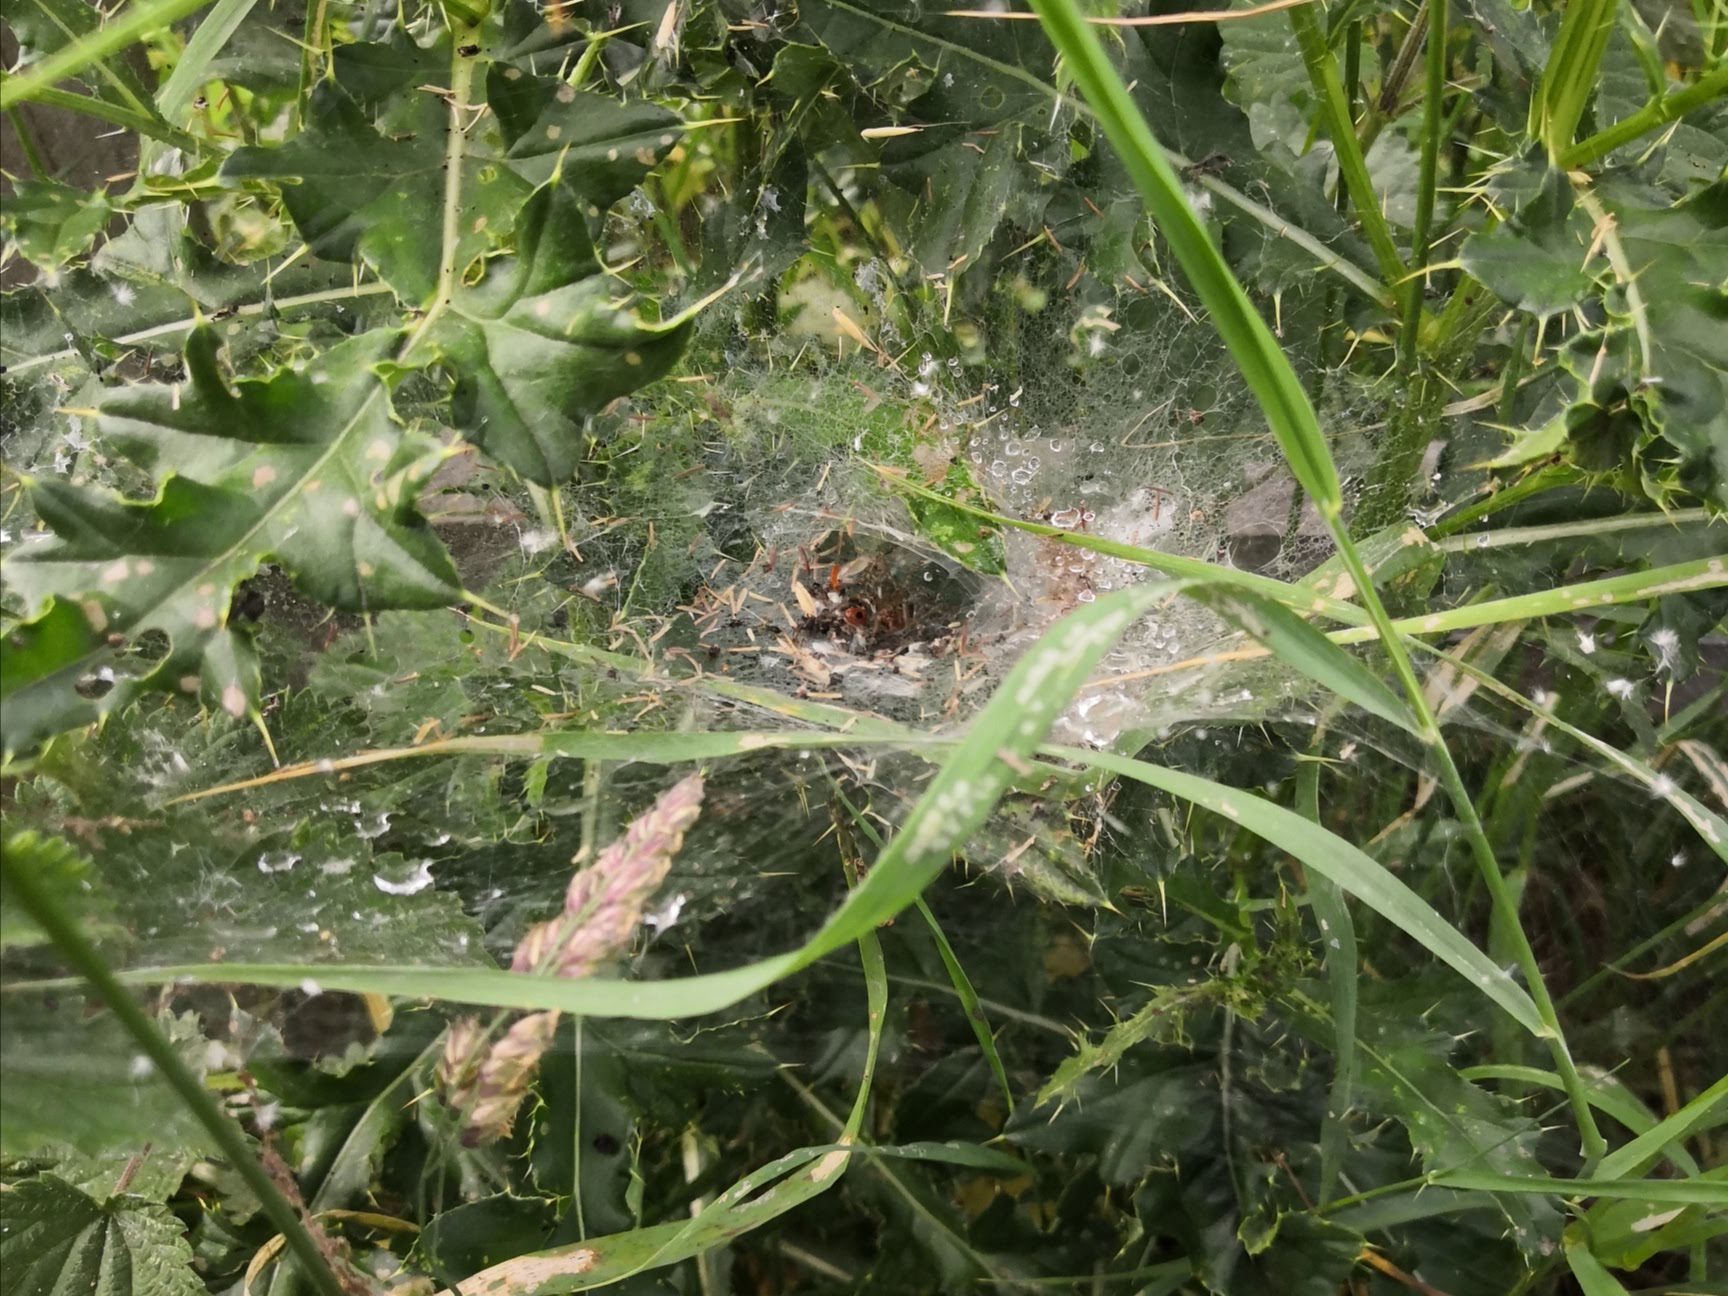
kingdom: Animalia
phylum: Arthropoda
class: Arachnida
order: Araneae
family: Agelenidae
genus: Agelena
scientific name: Agelena labyrinthica
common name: Labyrinth spider
